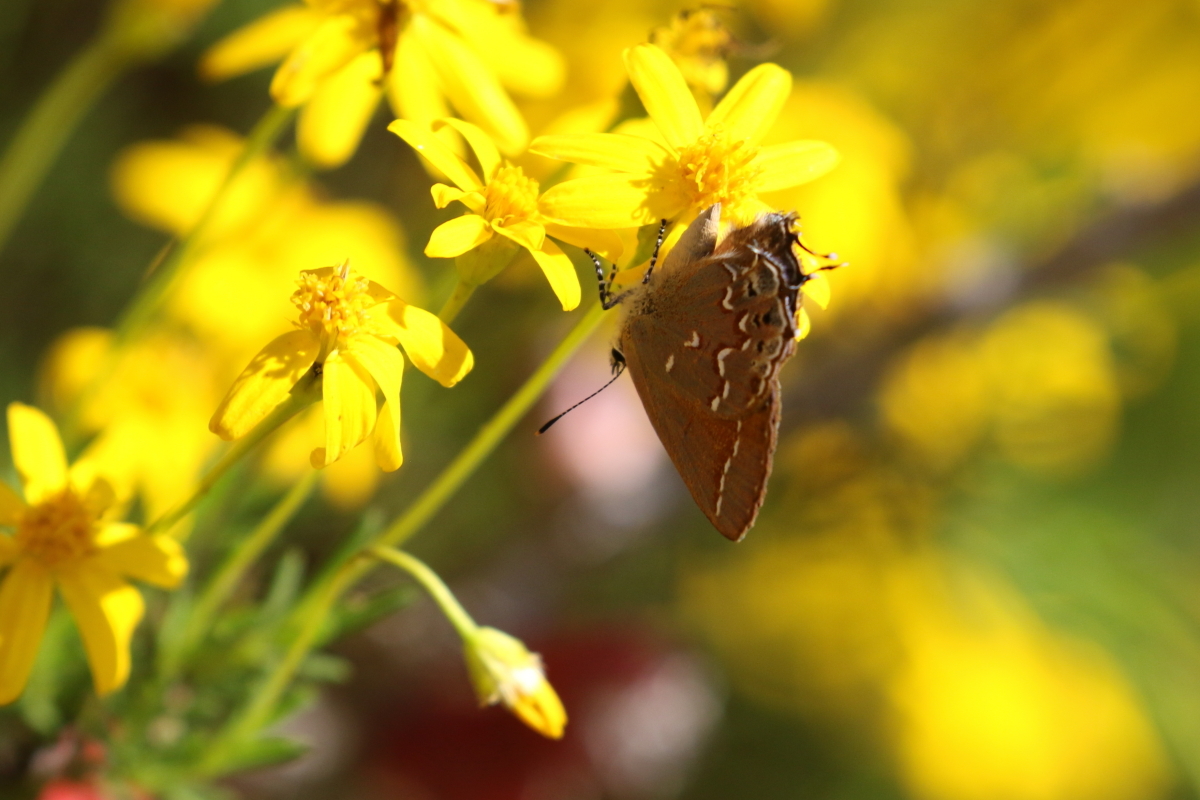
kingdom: Animalia
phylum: Arthropoda
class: Insecta
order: Lepidoptera
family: Lycaenidae
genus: Mitoura
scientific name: Mitoura gryneus
